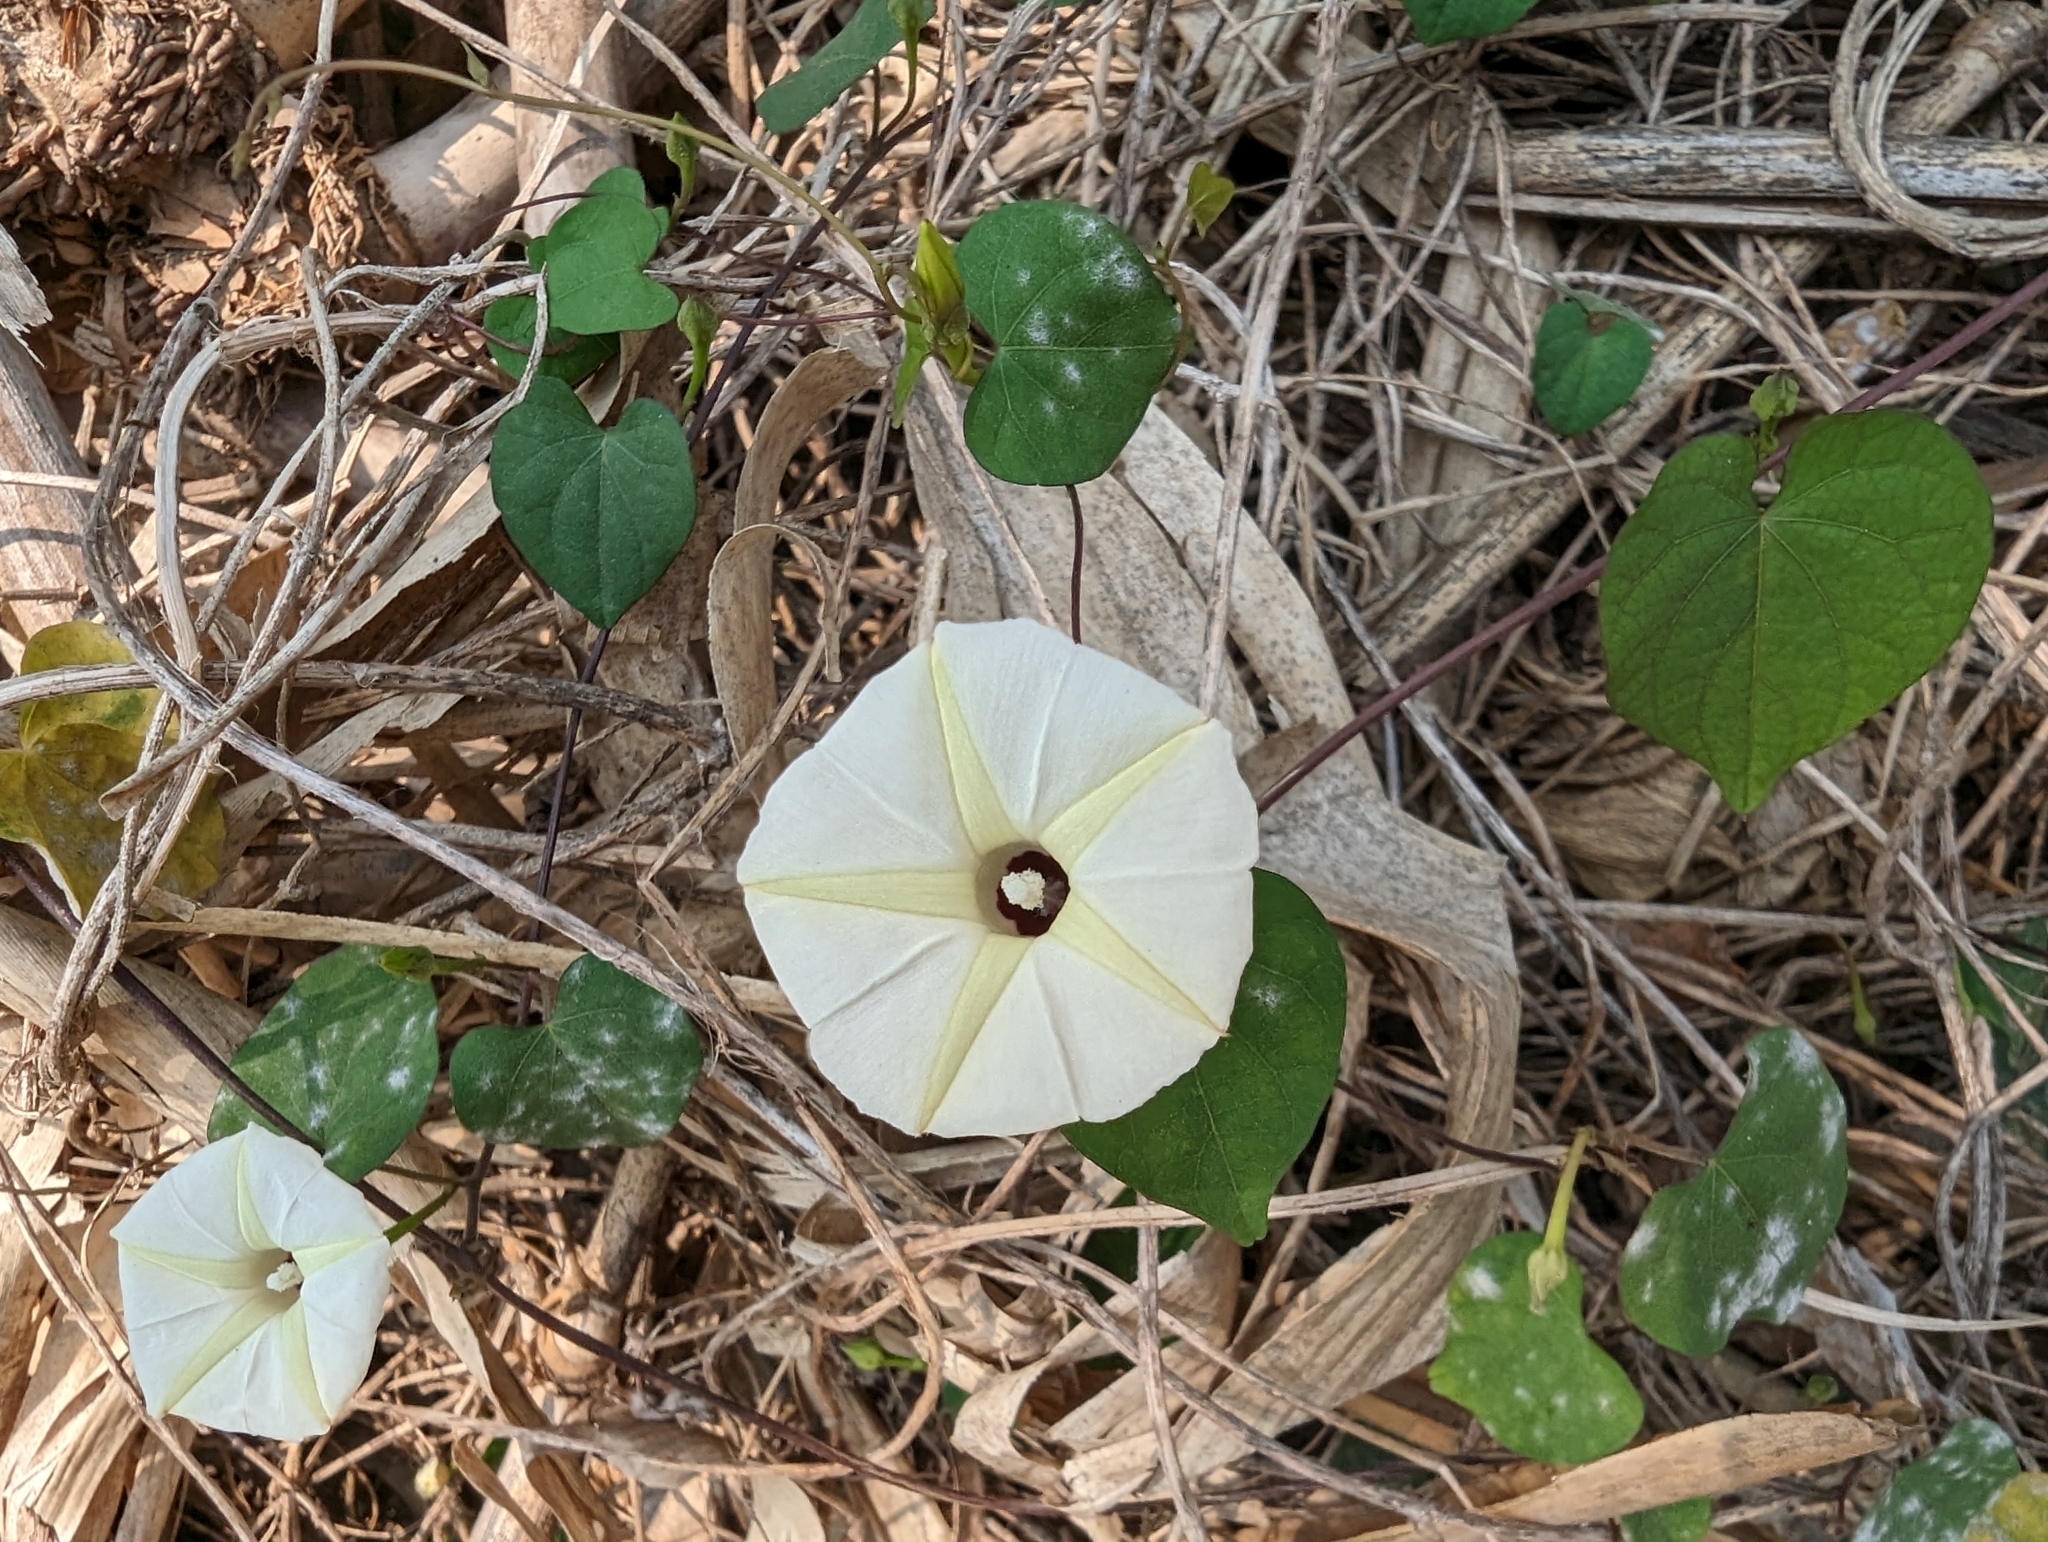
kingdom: Plantae
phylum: Tracheophyta
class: Magnoliopsida
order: Solanales
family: Convolvulaceae
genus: Ipomoea
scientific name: Ipomoea obscura
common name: Obscure morning-glory
